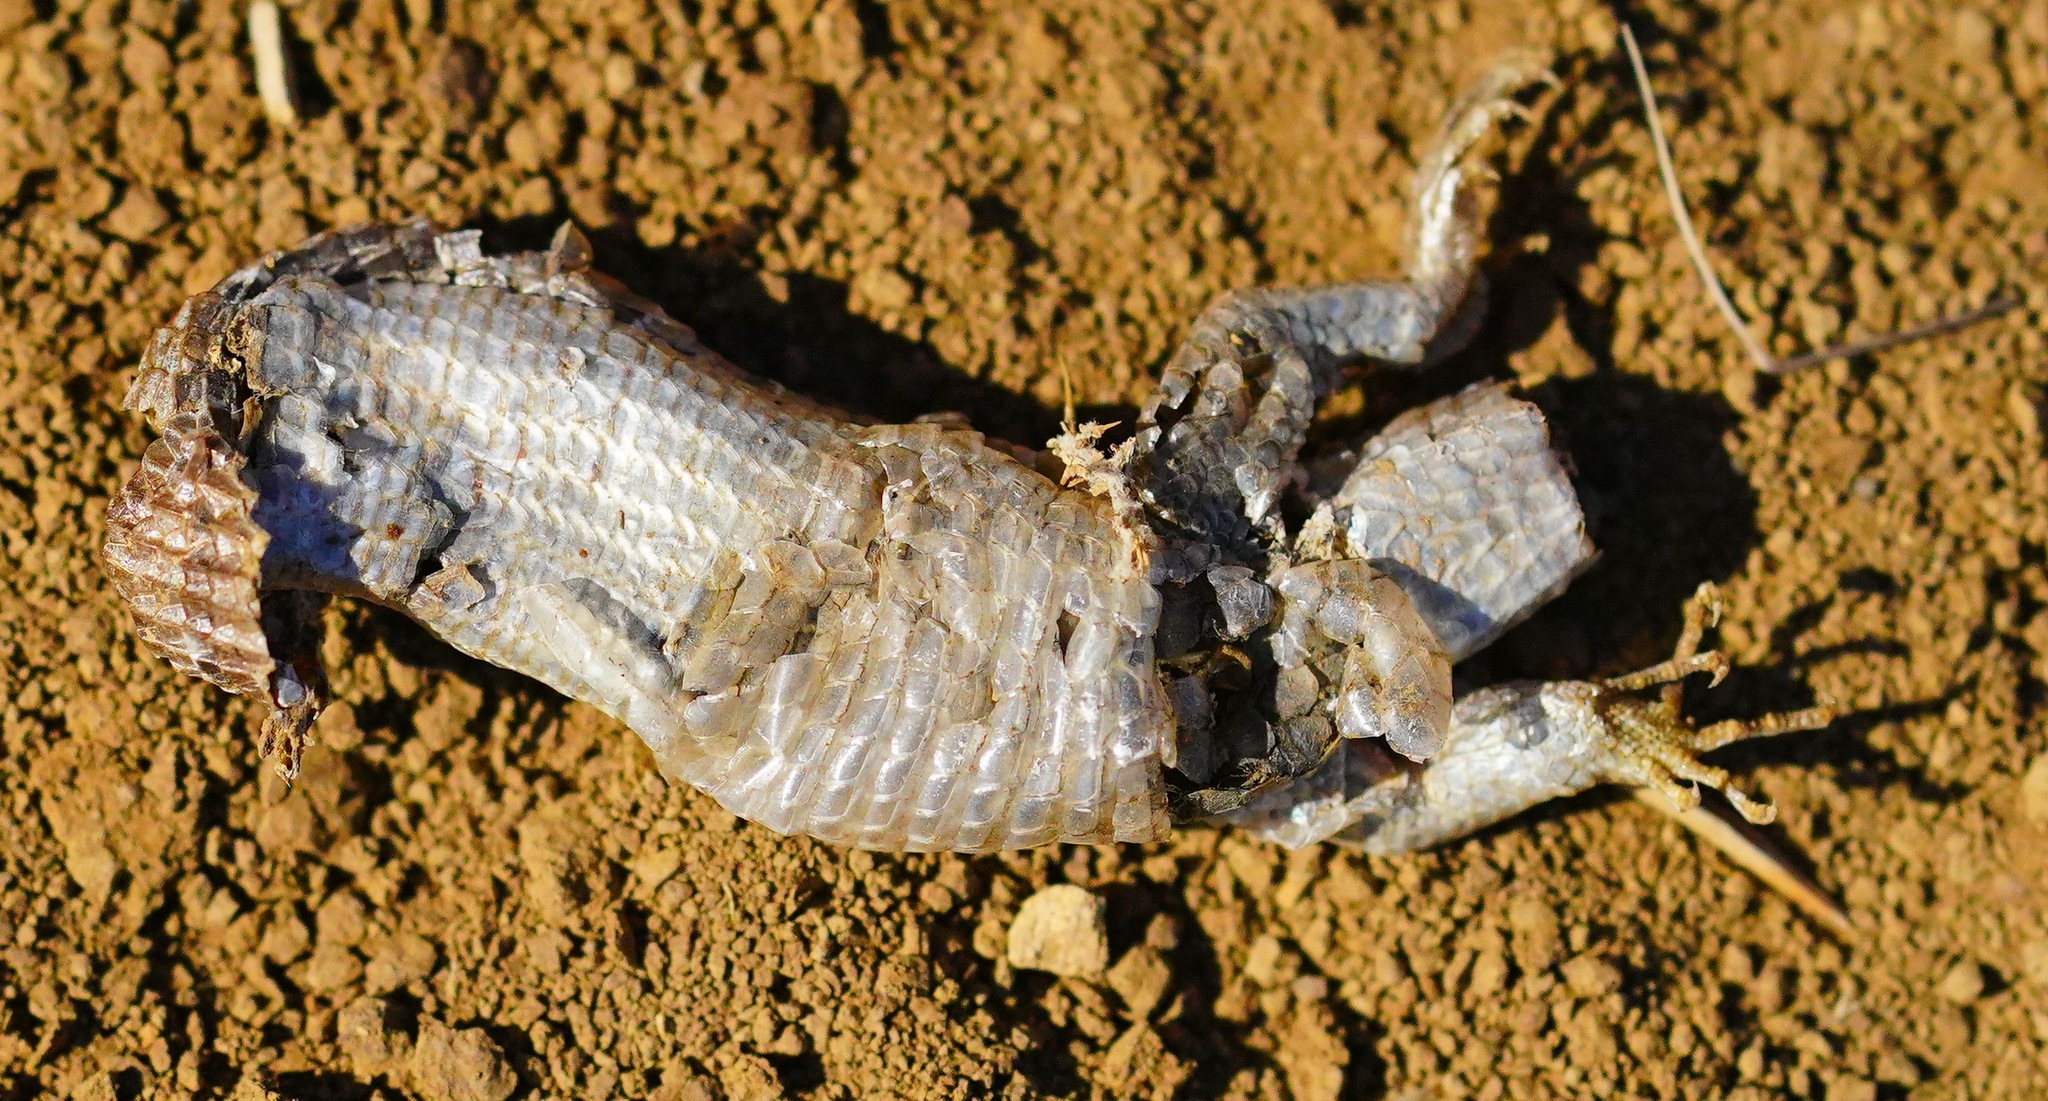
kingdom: Animalia
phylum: Chordata
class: Squamata
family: Anguidae
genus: Elgaria
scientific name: Elgaria multicarinata
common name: Southern alligator lizard
